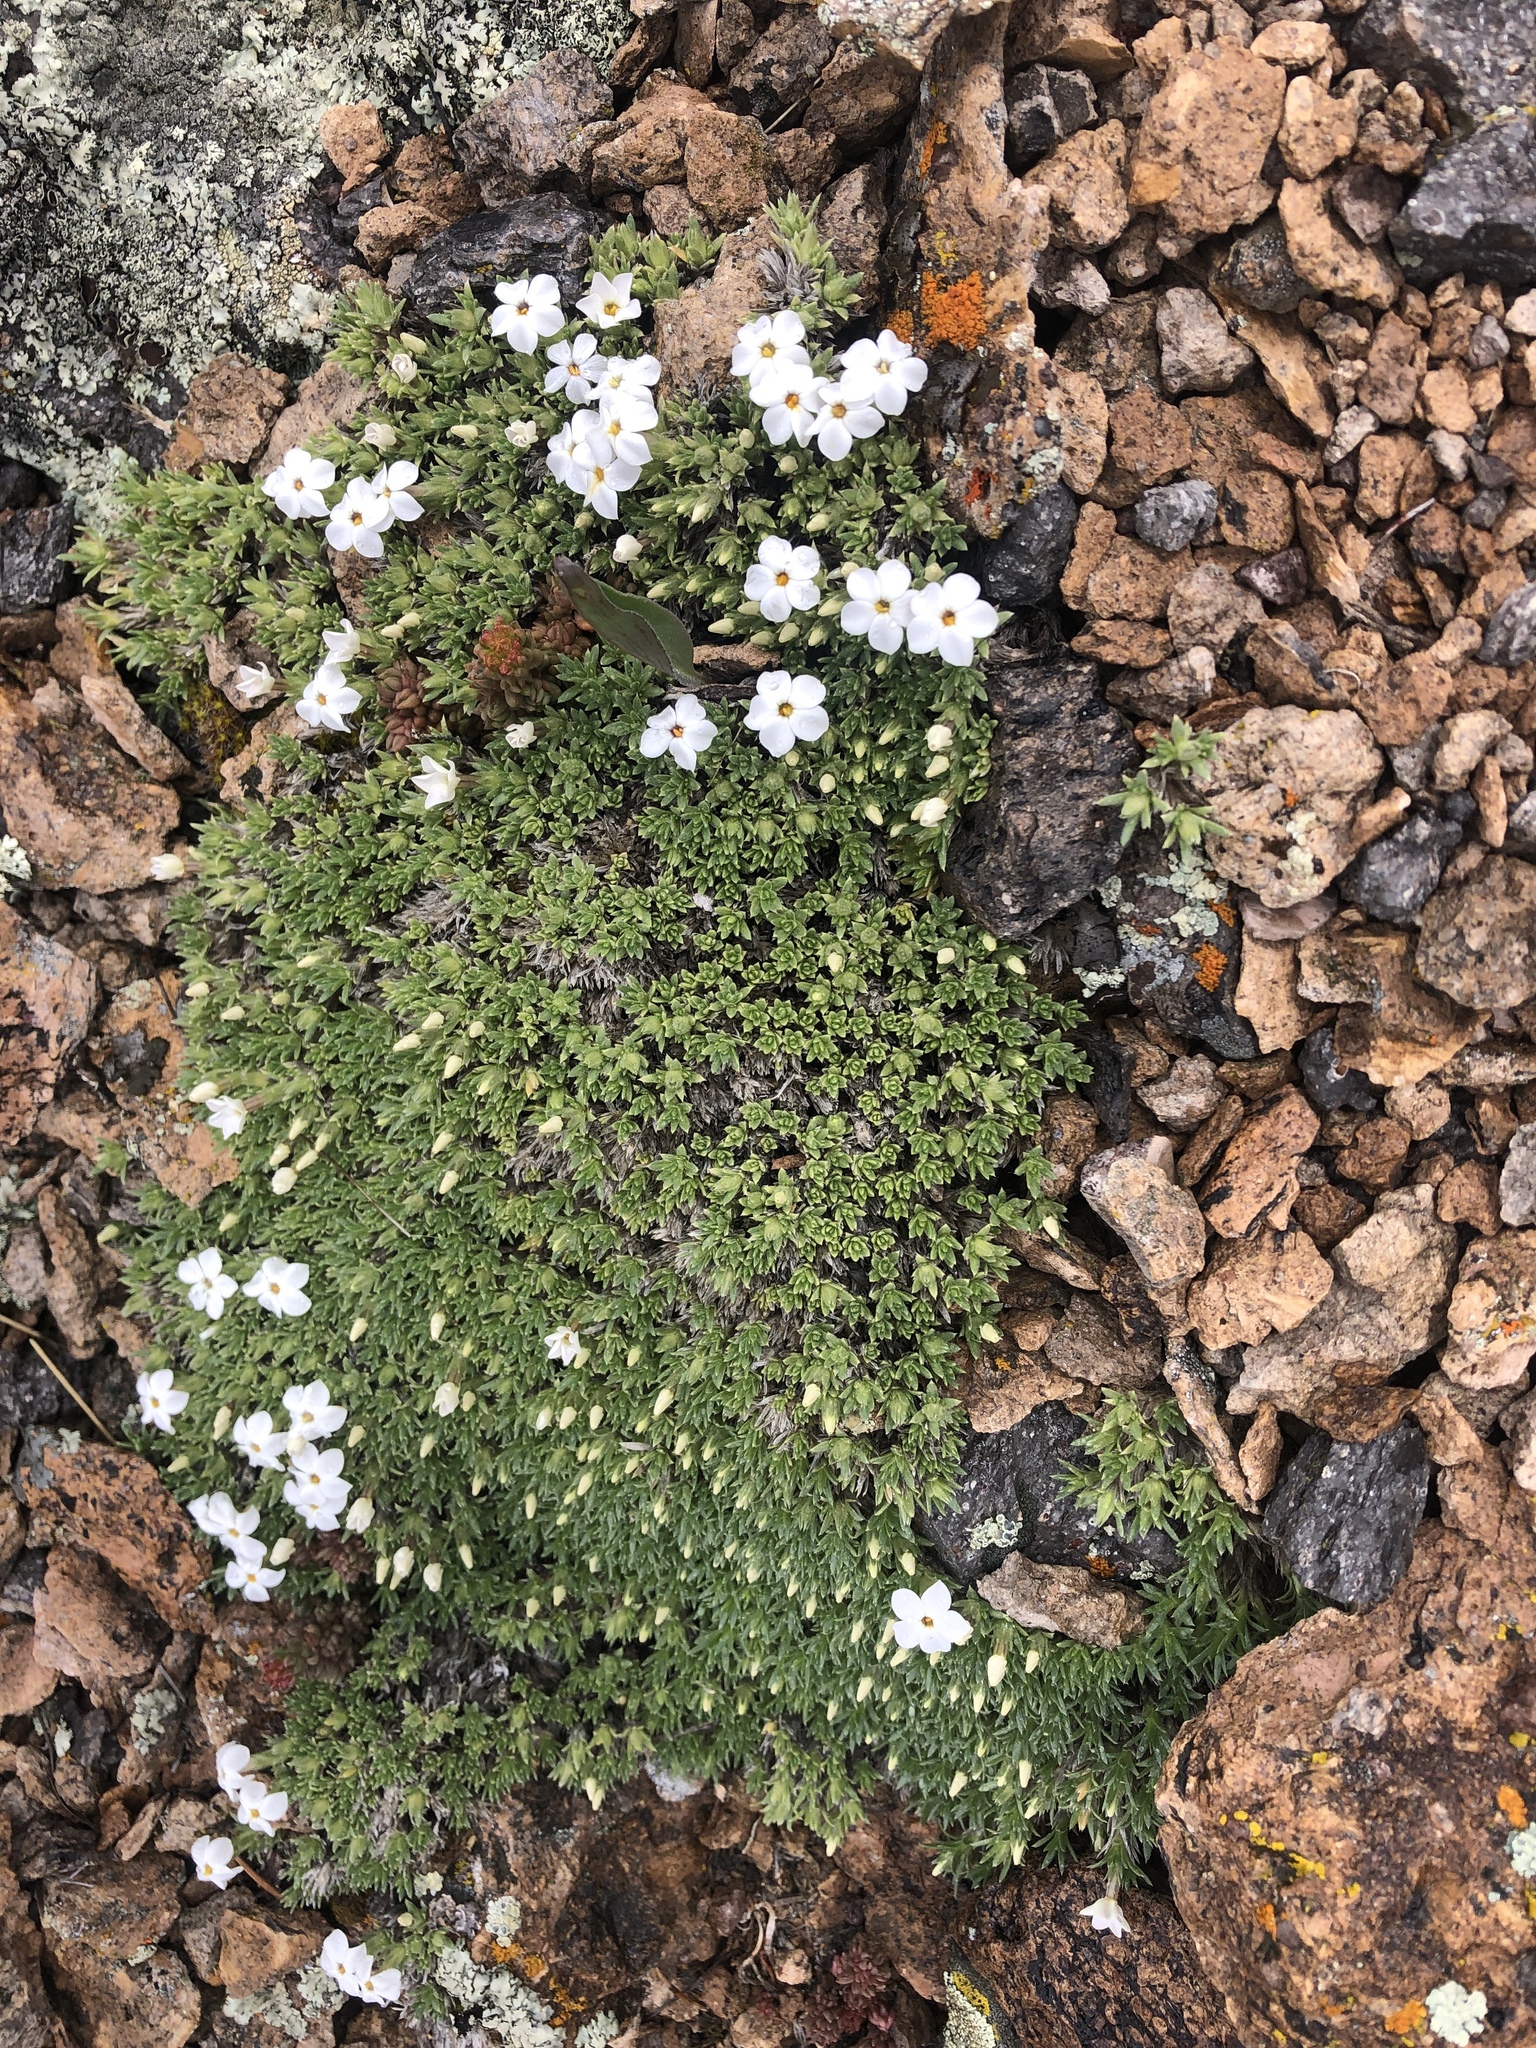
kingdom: Plantae
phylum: Tracheophyta
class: Magnoliopsida
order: Ericales
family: Polemoniaceae
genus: Phlox
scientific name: Phlox condensata
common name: Compact phlox
